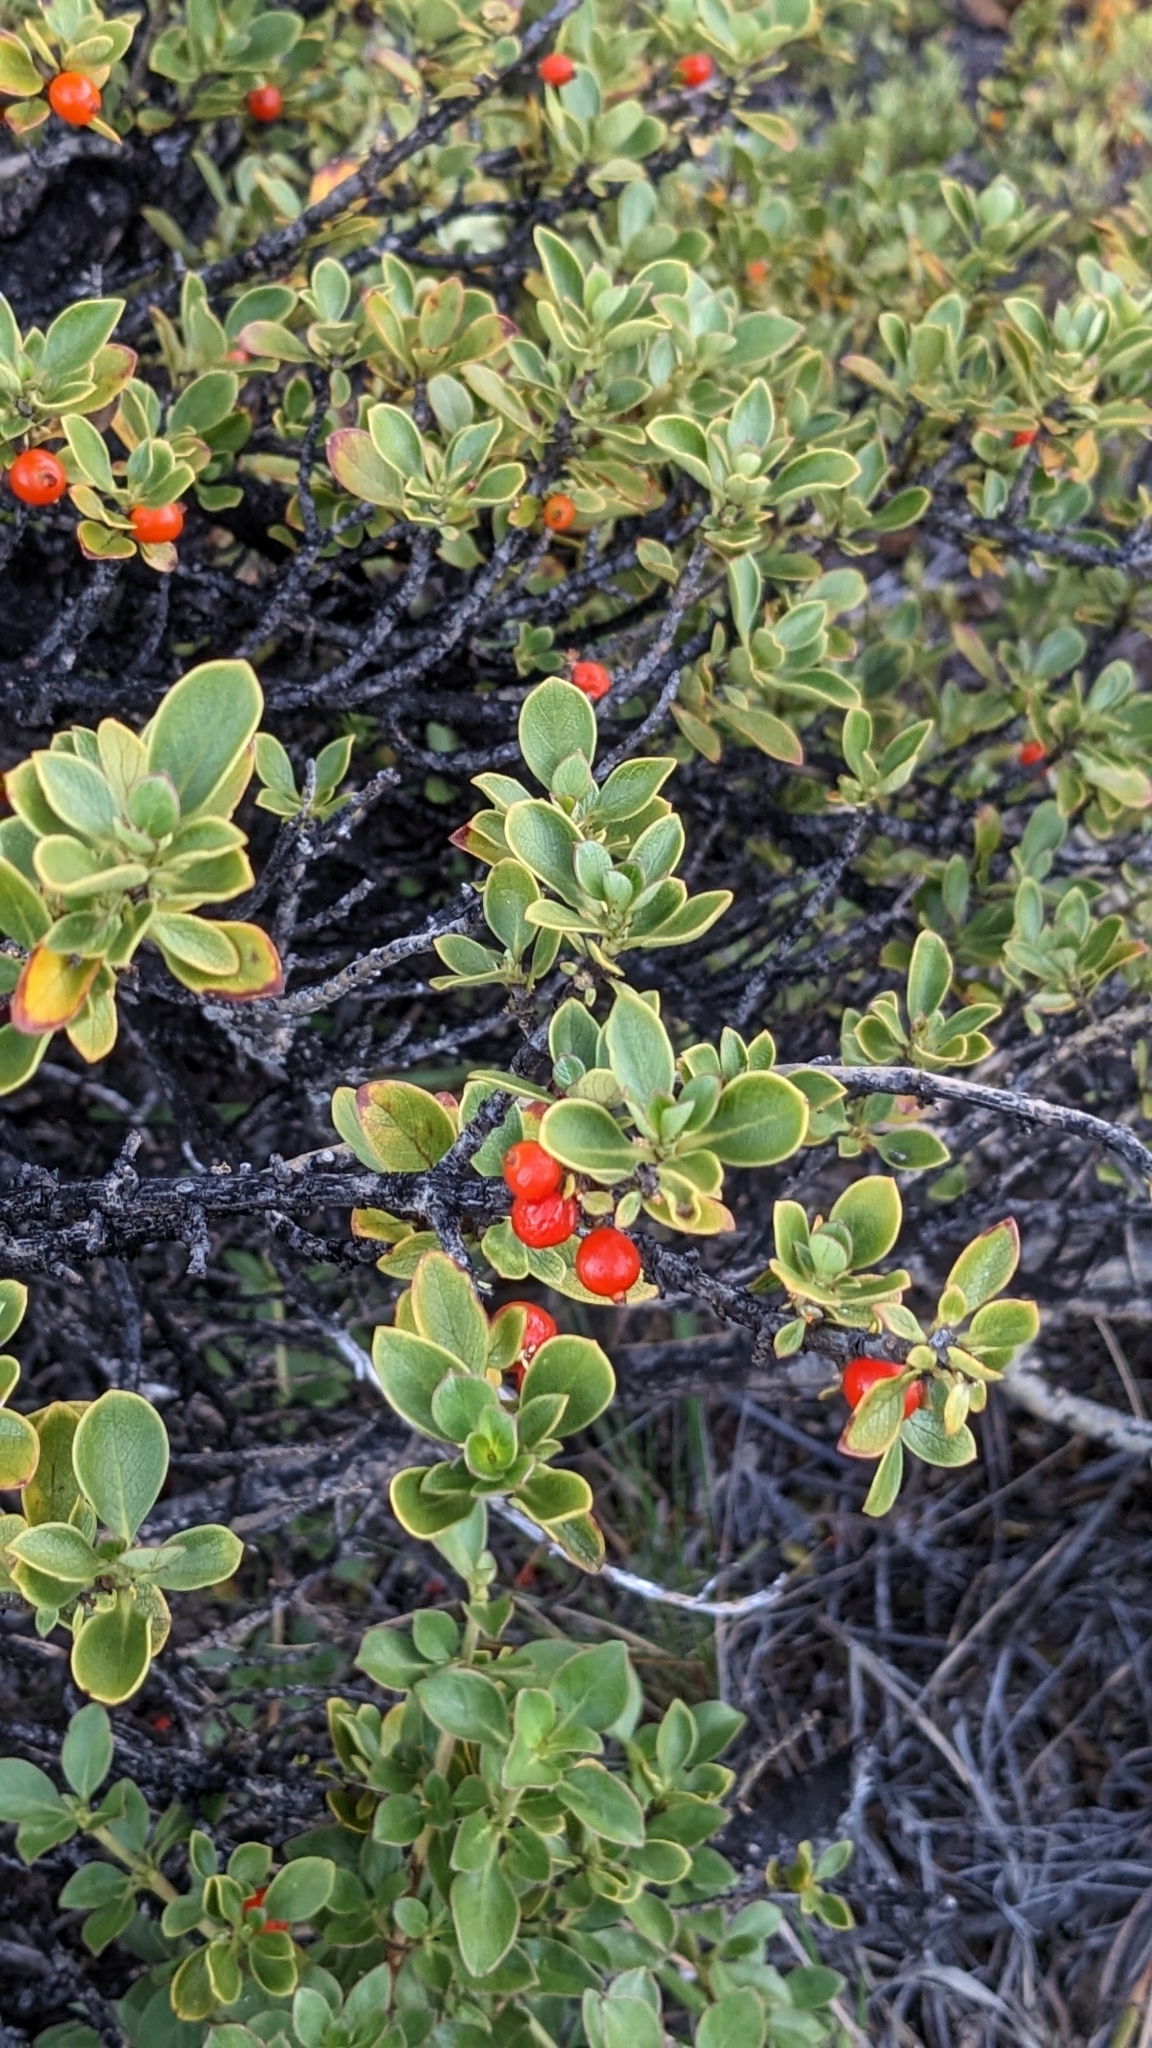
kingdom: Plantae
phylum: Tracheophyta
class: Magnoliopsida
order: Gentianales
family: Rubiaceae
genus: Coprosma
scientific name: Coprosma montana
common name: Alpine mirror plant
